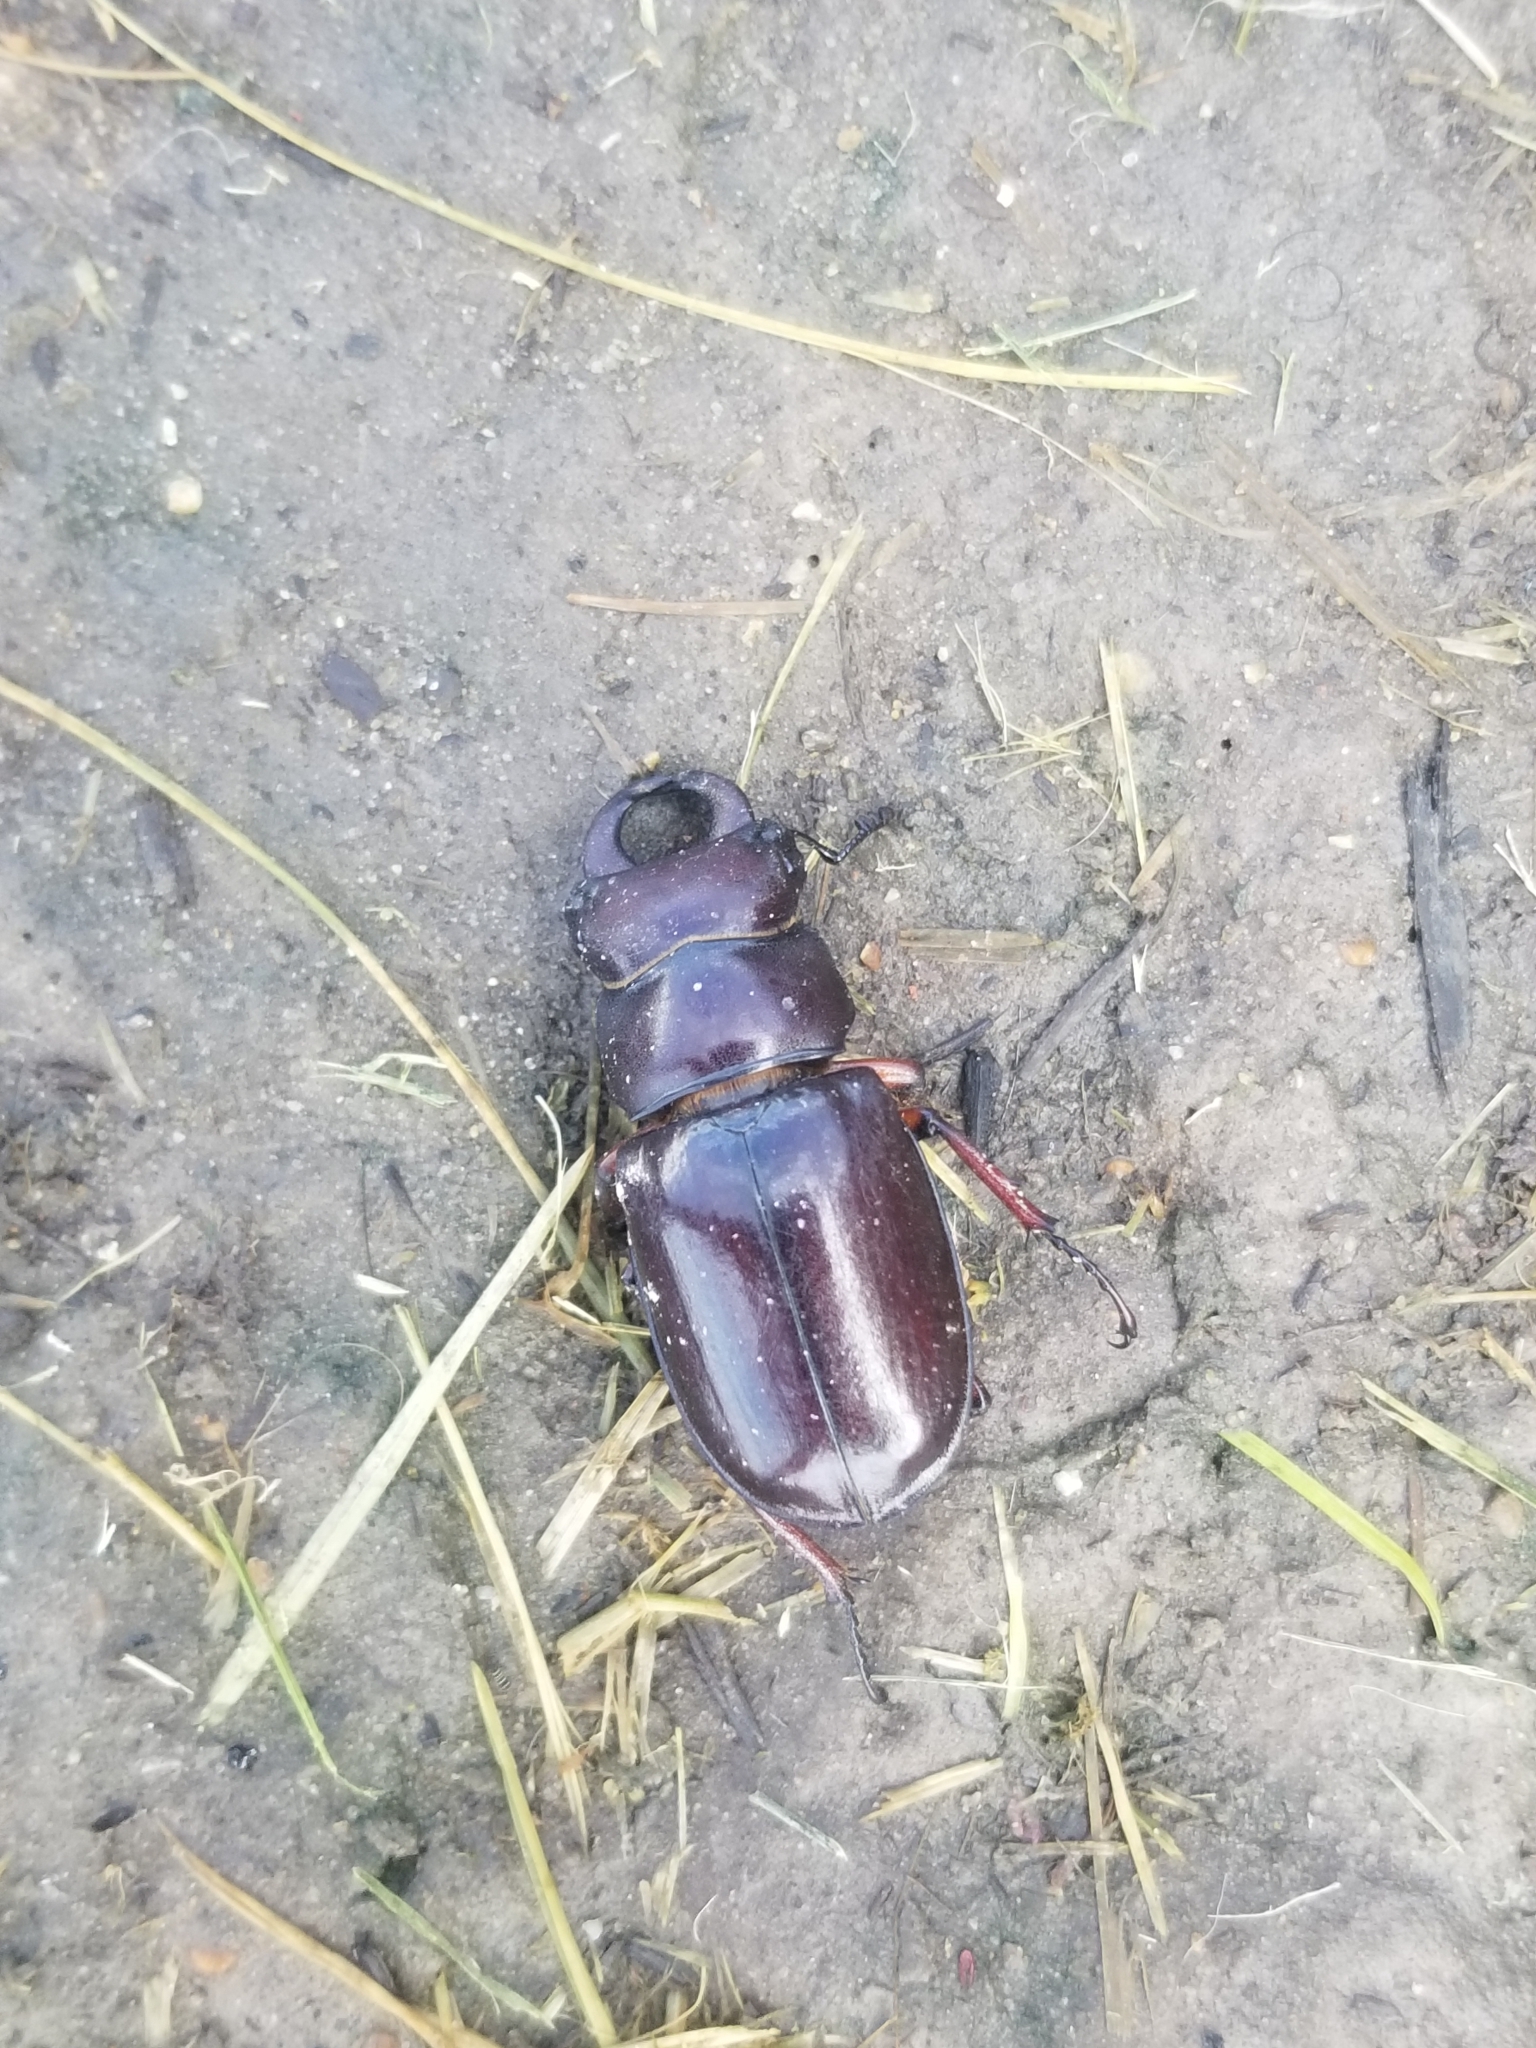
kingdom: Animalia
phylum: Arthropoda
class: Insecta
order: Coleoptera
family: Lucanidae
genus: Lucanus
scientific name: Lucanus capreolus
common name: Stag beetle
